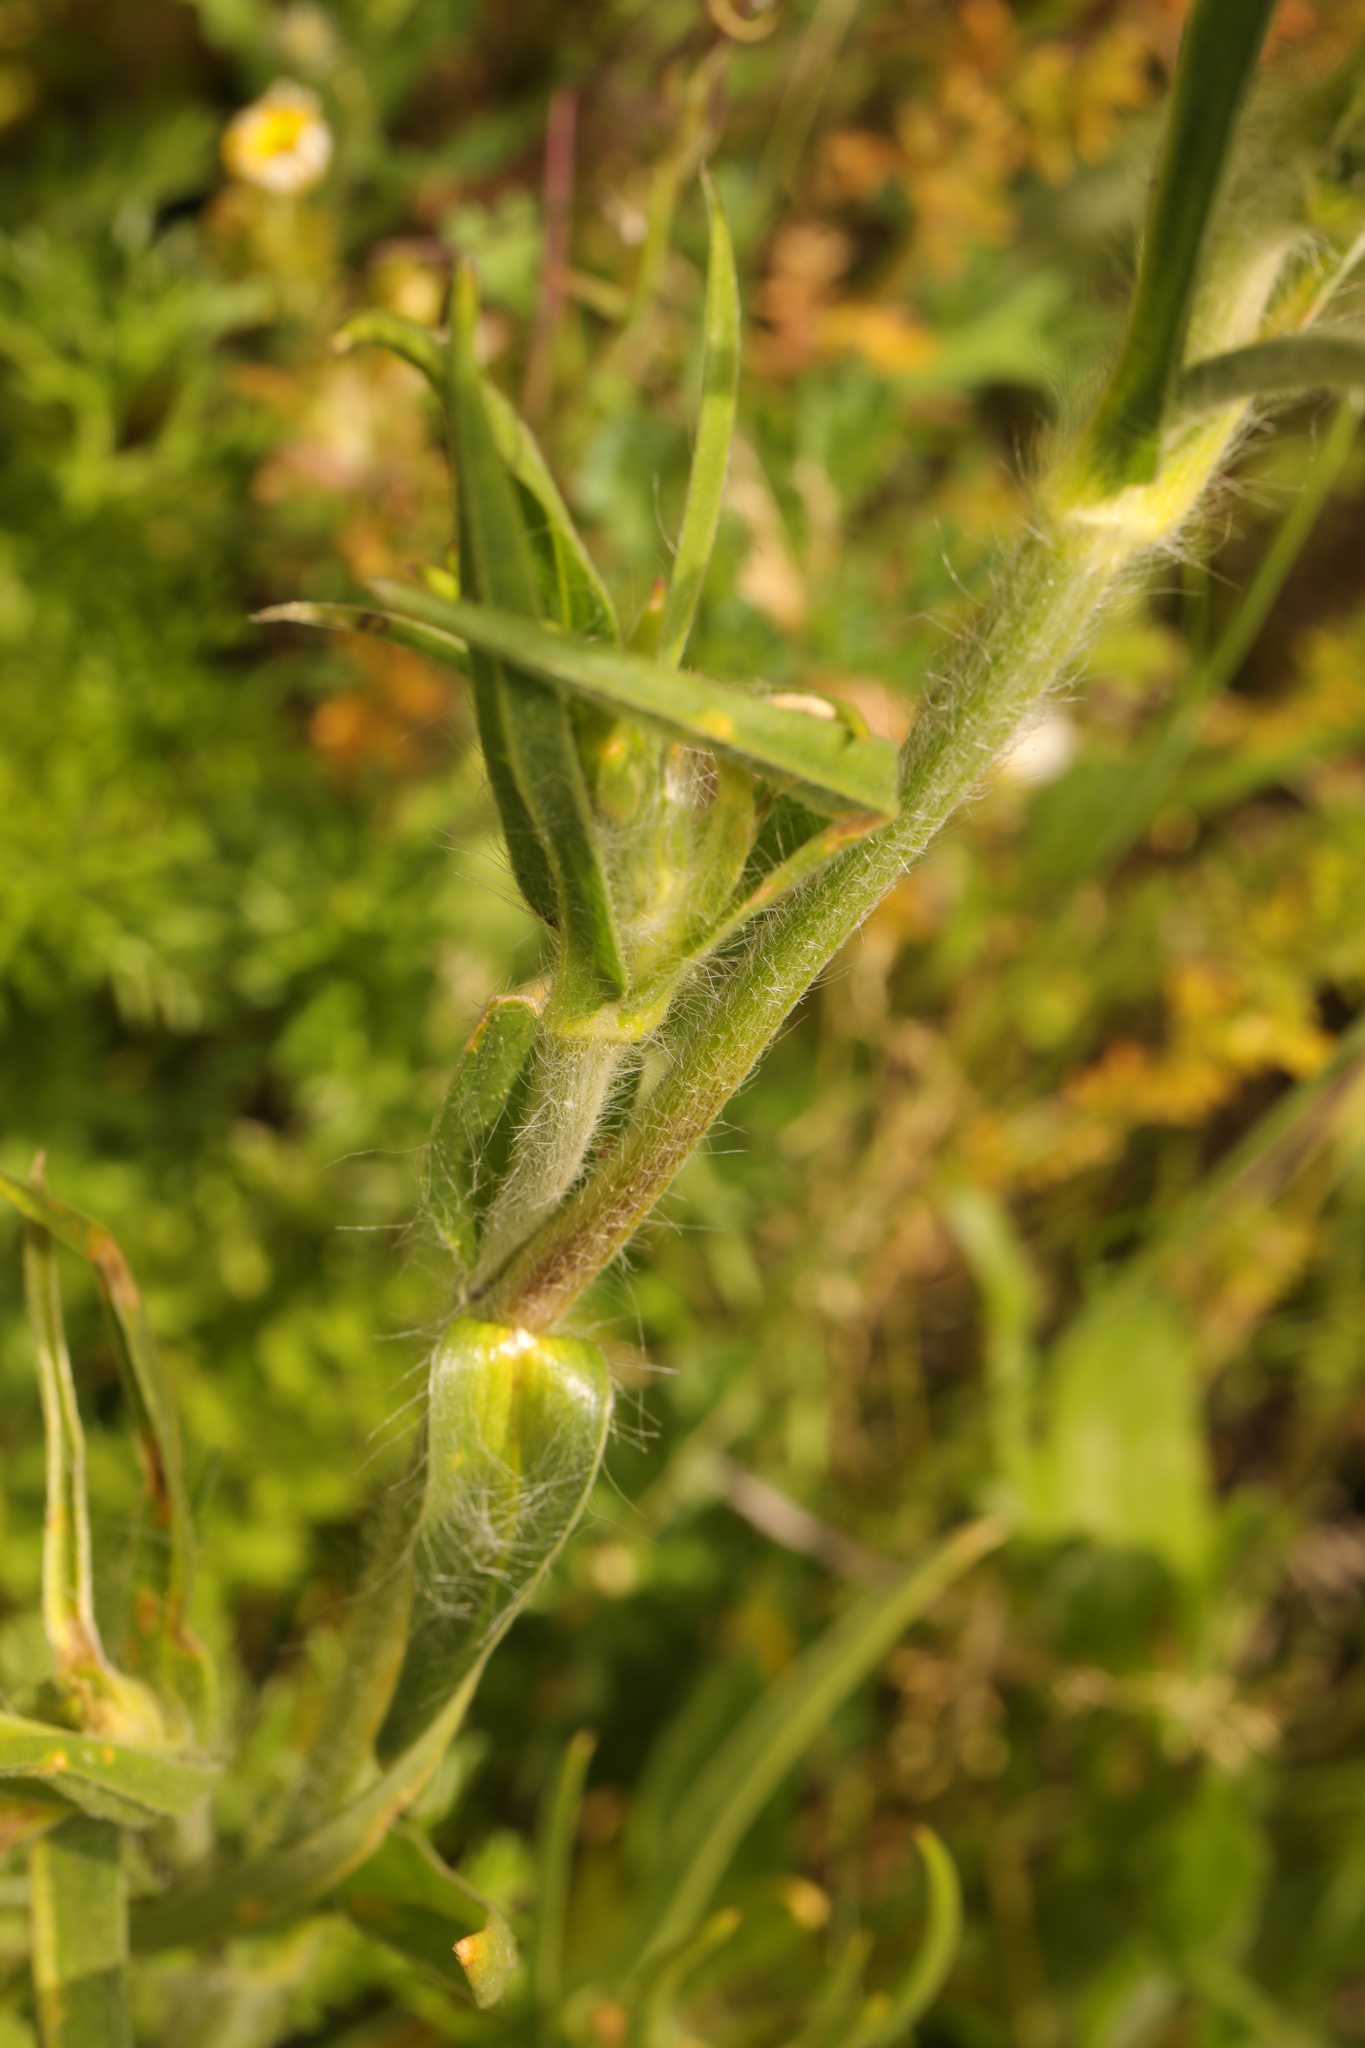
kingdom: Plantae
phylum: Tracheophyta
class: Magnoliopsida
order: Caryophyllales
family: Caryophyllaceae
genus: Agrostemma
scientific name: Agrostemma githago
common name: Common corncockle
